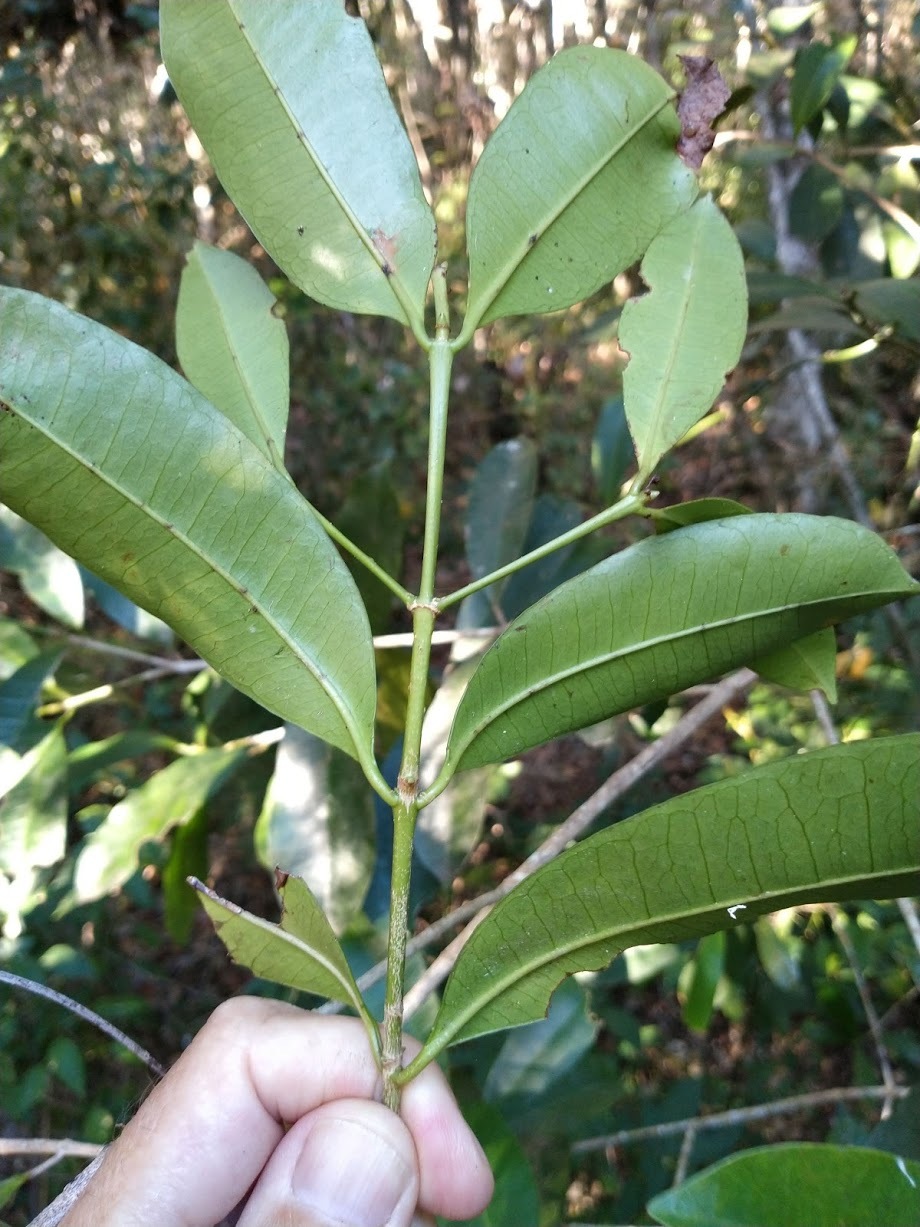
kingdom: Plantae
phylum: Tracheophyta
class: Magnoliopsida
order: Malpighiales
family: Euphorbiaceae
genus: Baloghia
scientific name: Baloghia inophylla
